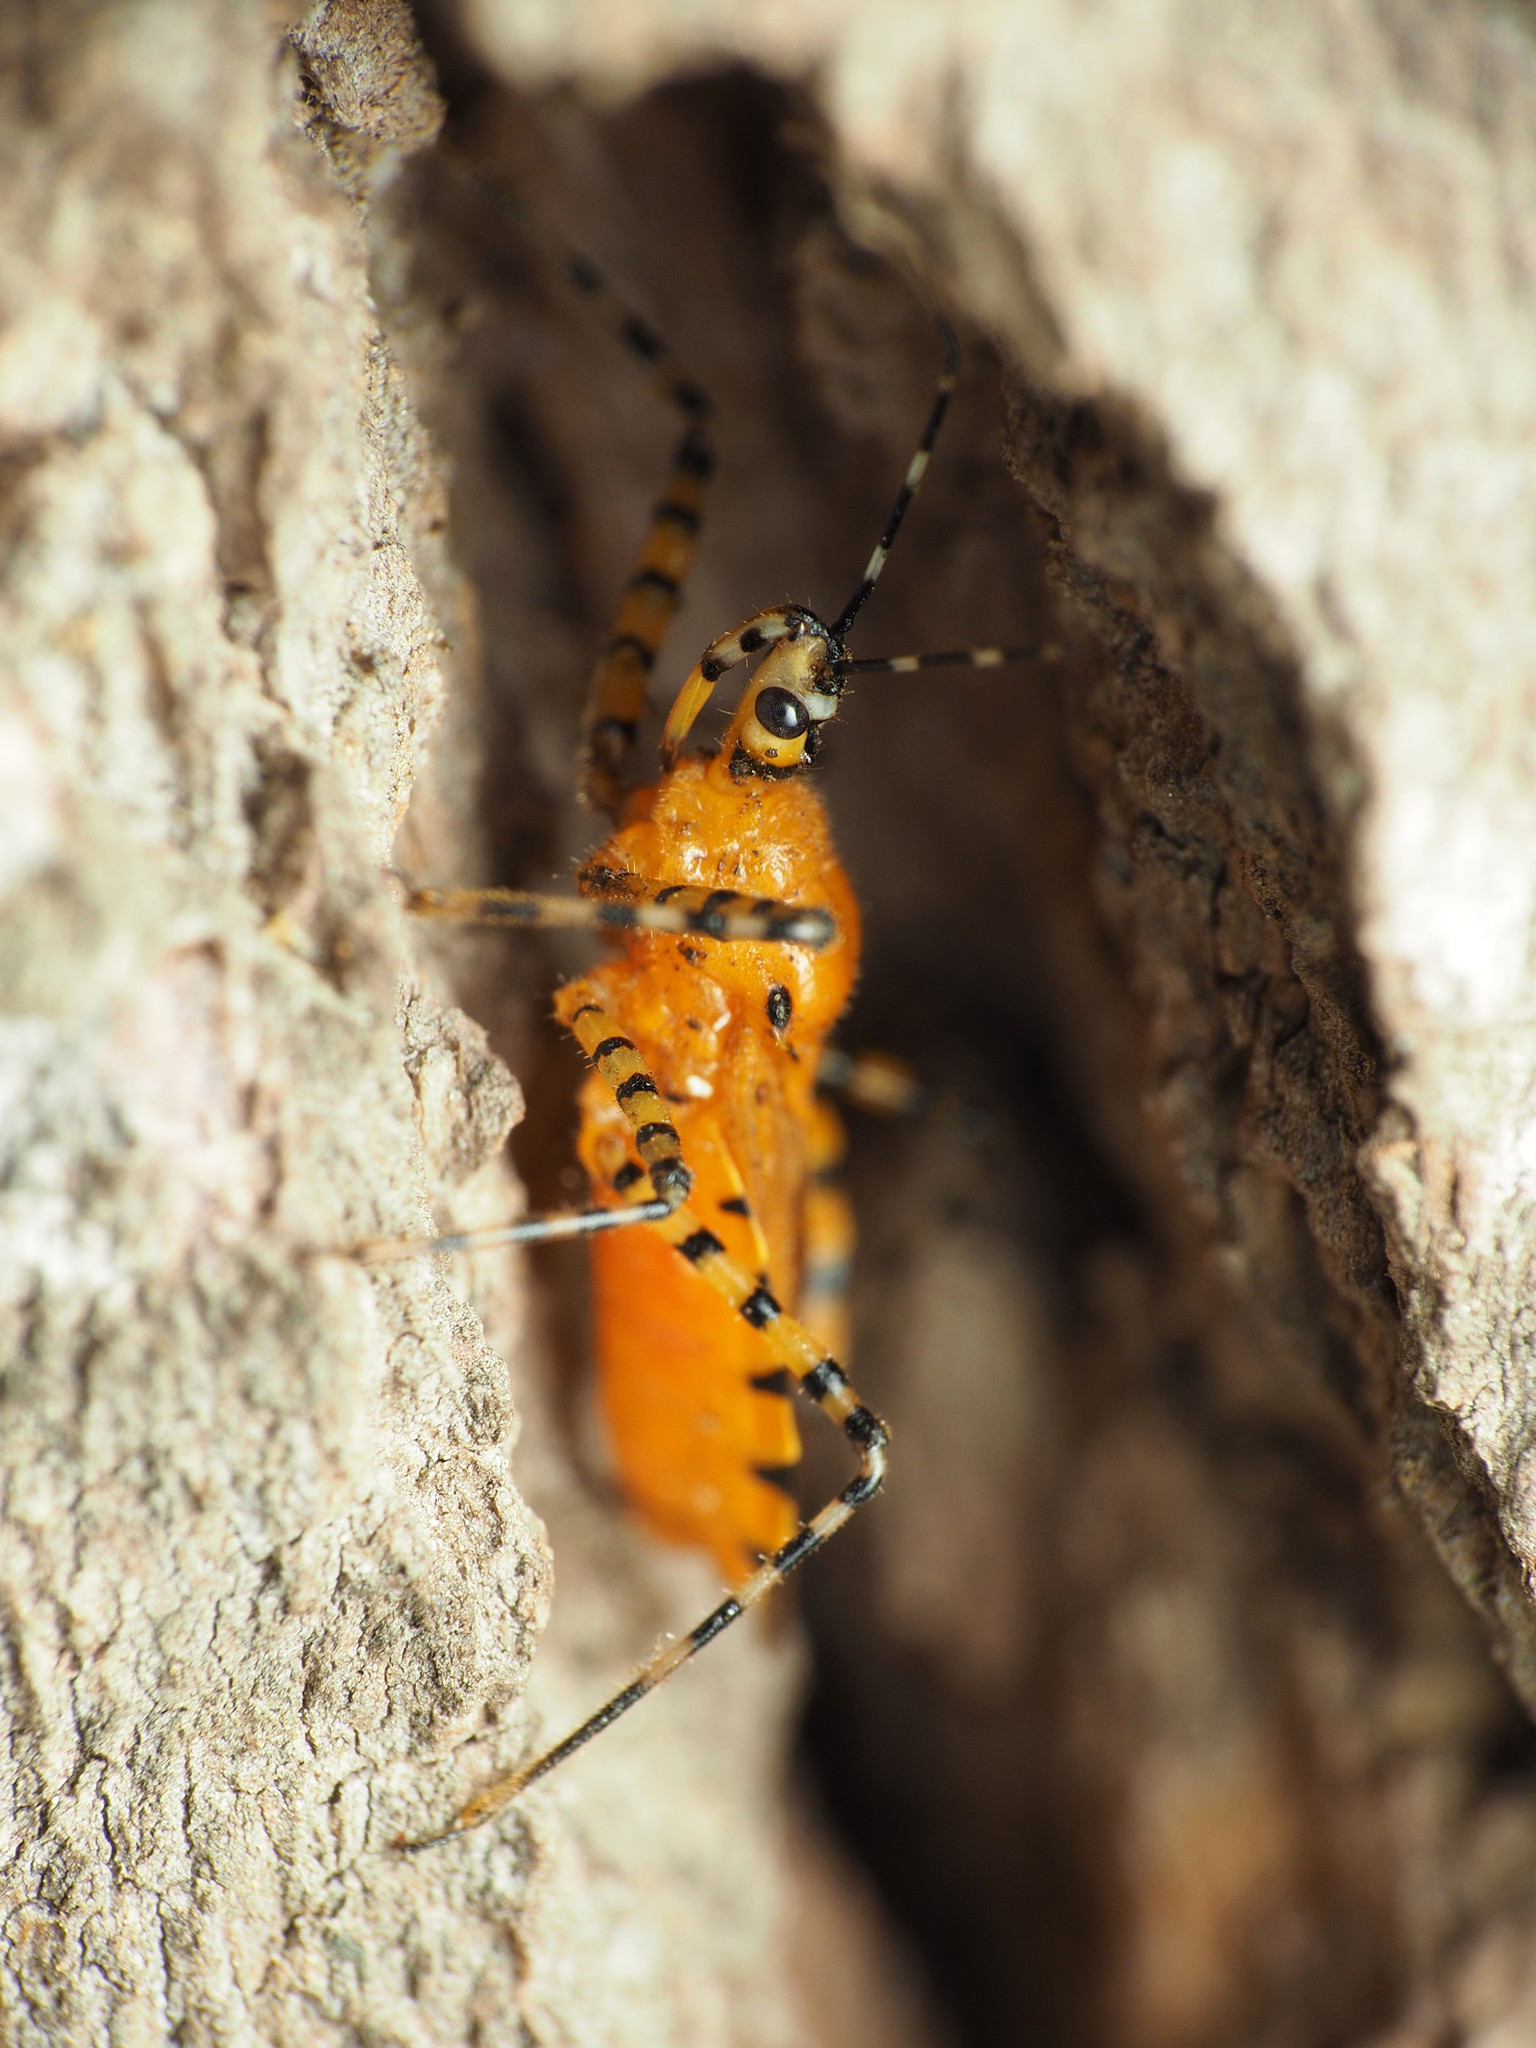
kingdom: Animalia
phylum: Arthropoda
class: Insecta
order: Hemiptera
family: Reduviidae
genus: Pselliopus
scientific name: Pselliopus barberi
